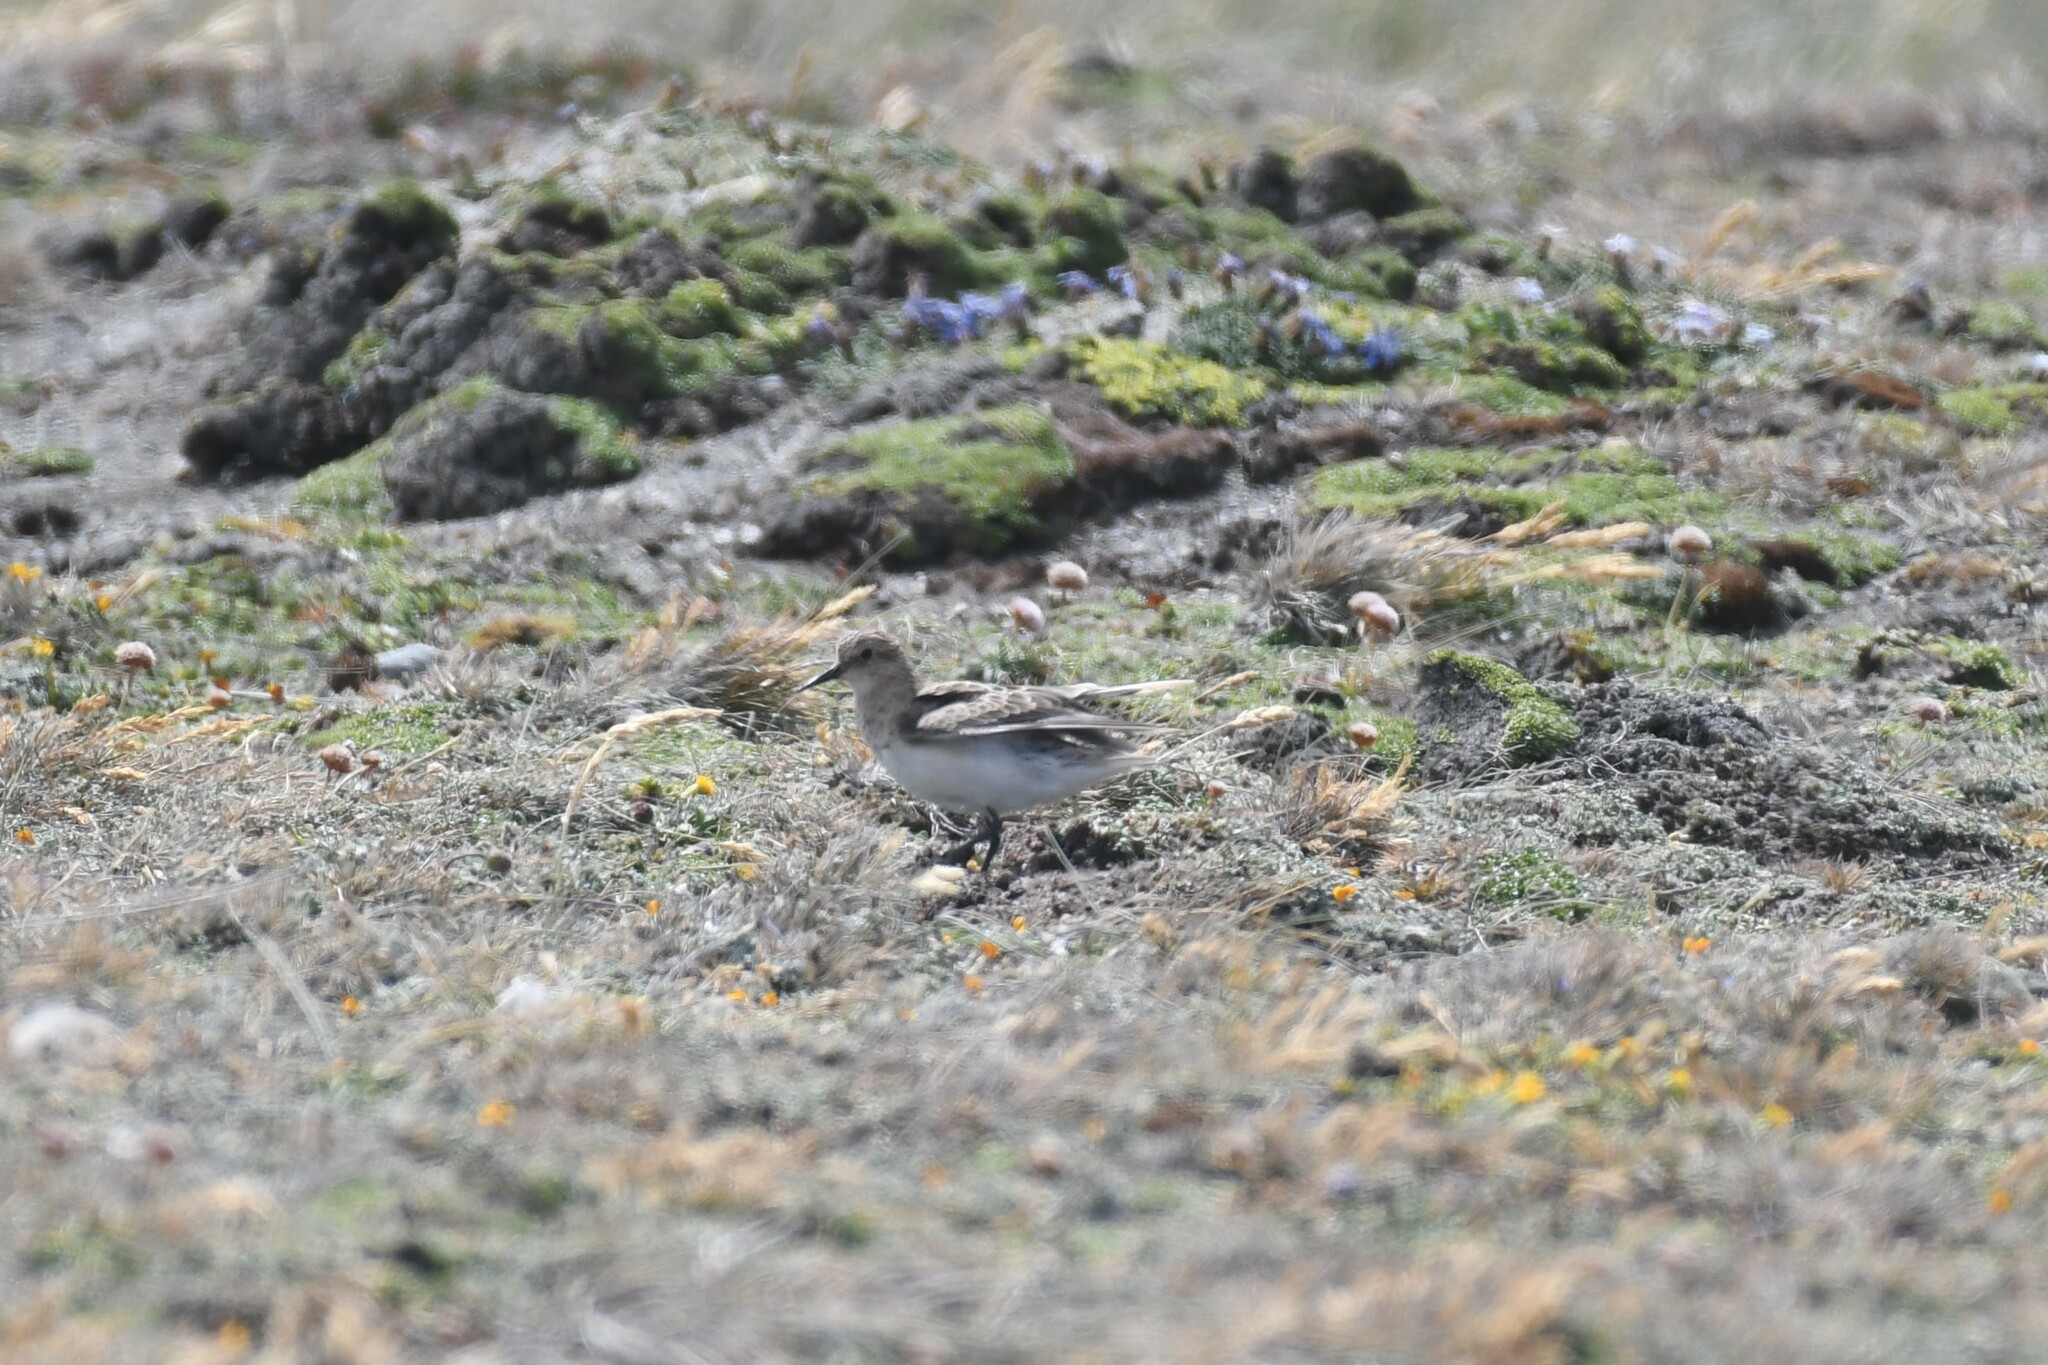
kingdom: Animalia
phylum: Chordata
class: Aves
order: Charadriiformes
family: Scolopacidae
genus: Calidris
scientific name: Calidris bairdii
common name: Baird's sandpiper
